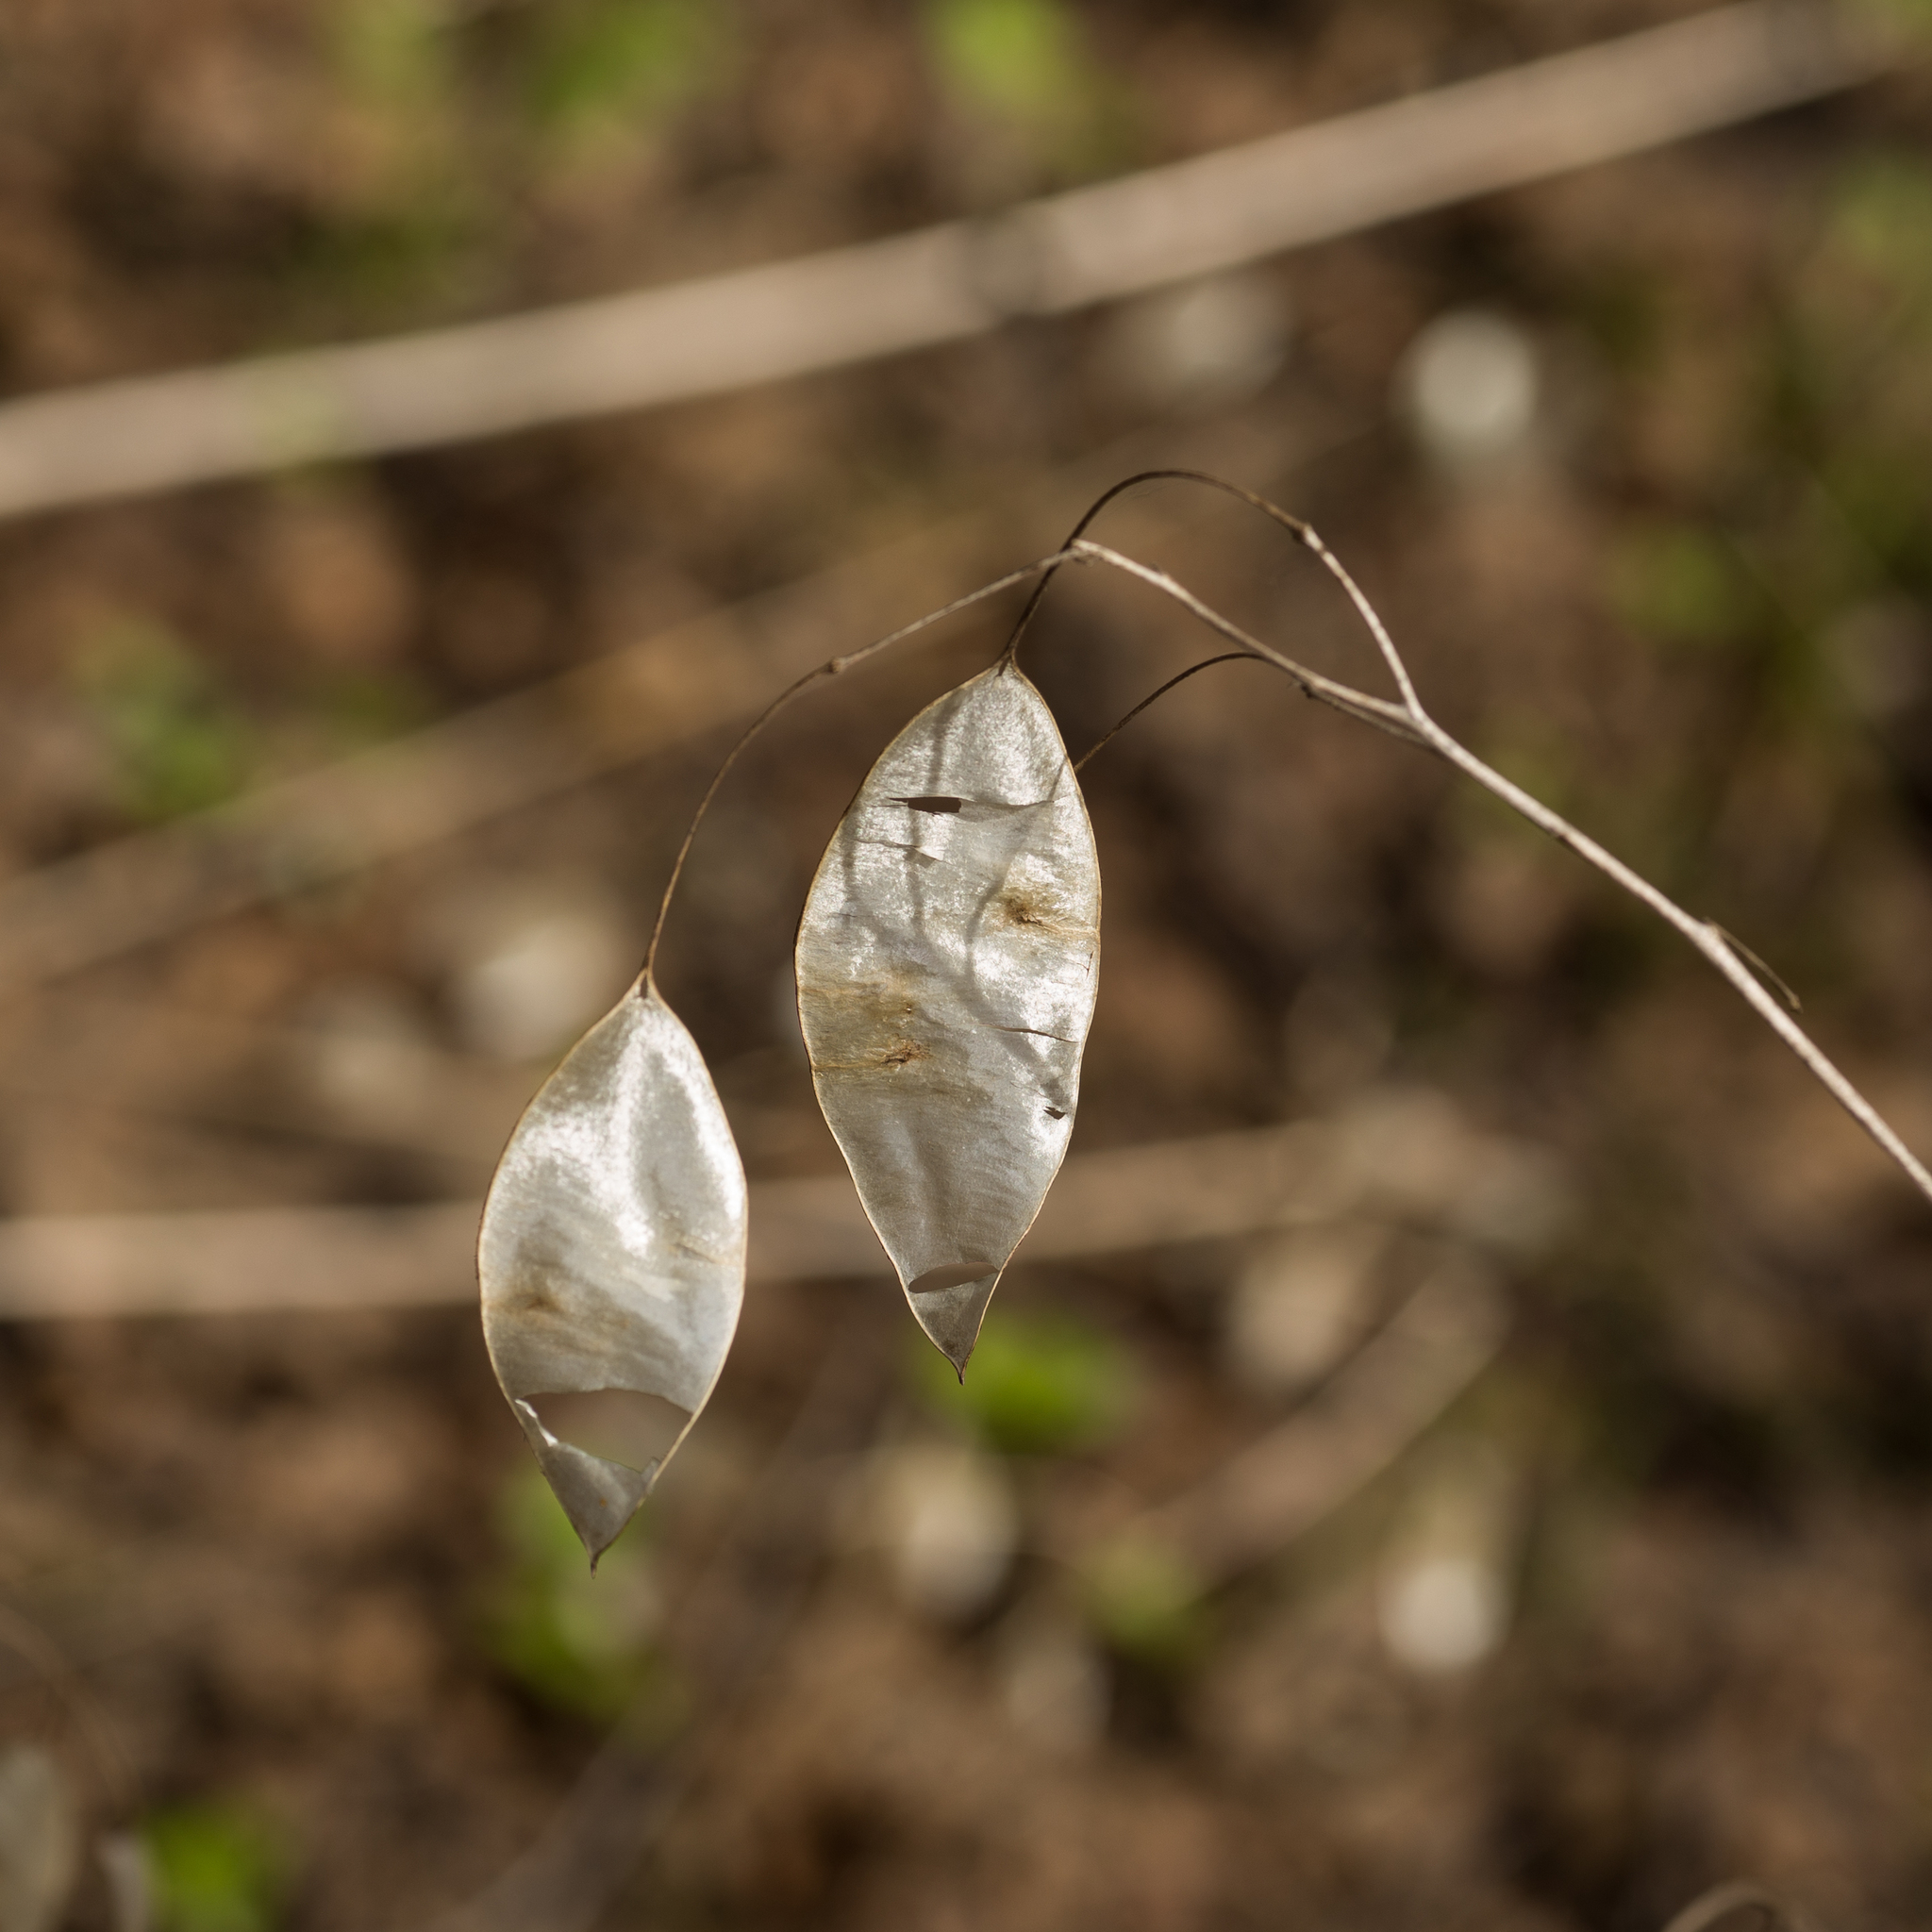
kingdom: Plantae
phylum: Tracheophyta
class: Magnoliopsida
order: Brassicales
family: Brassicaceae
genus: Lunaria
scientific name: Lunaria rediviva
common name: Perennial honesty
